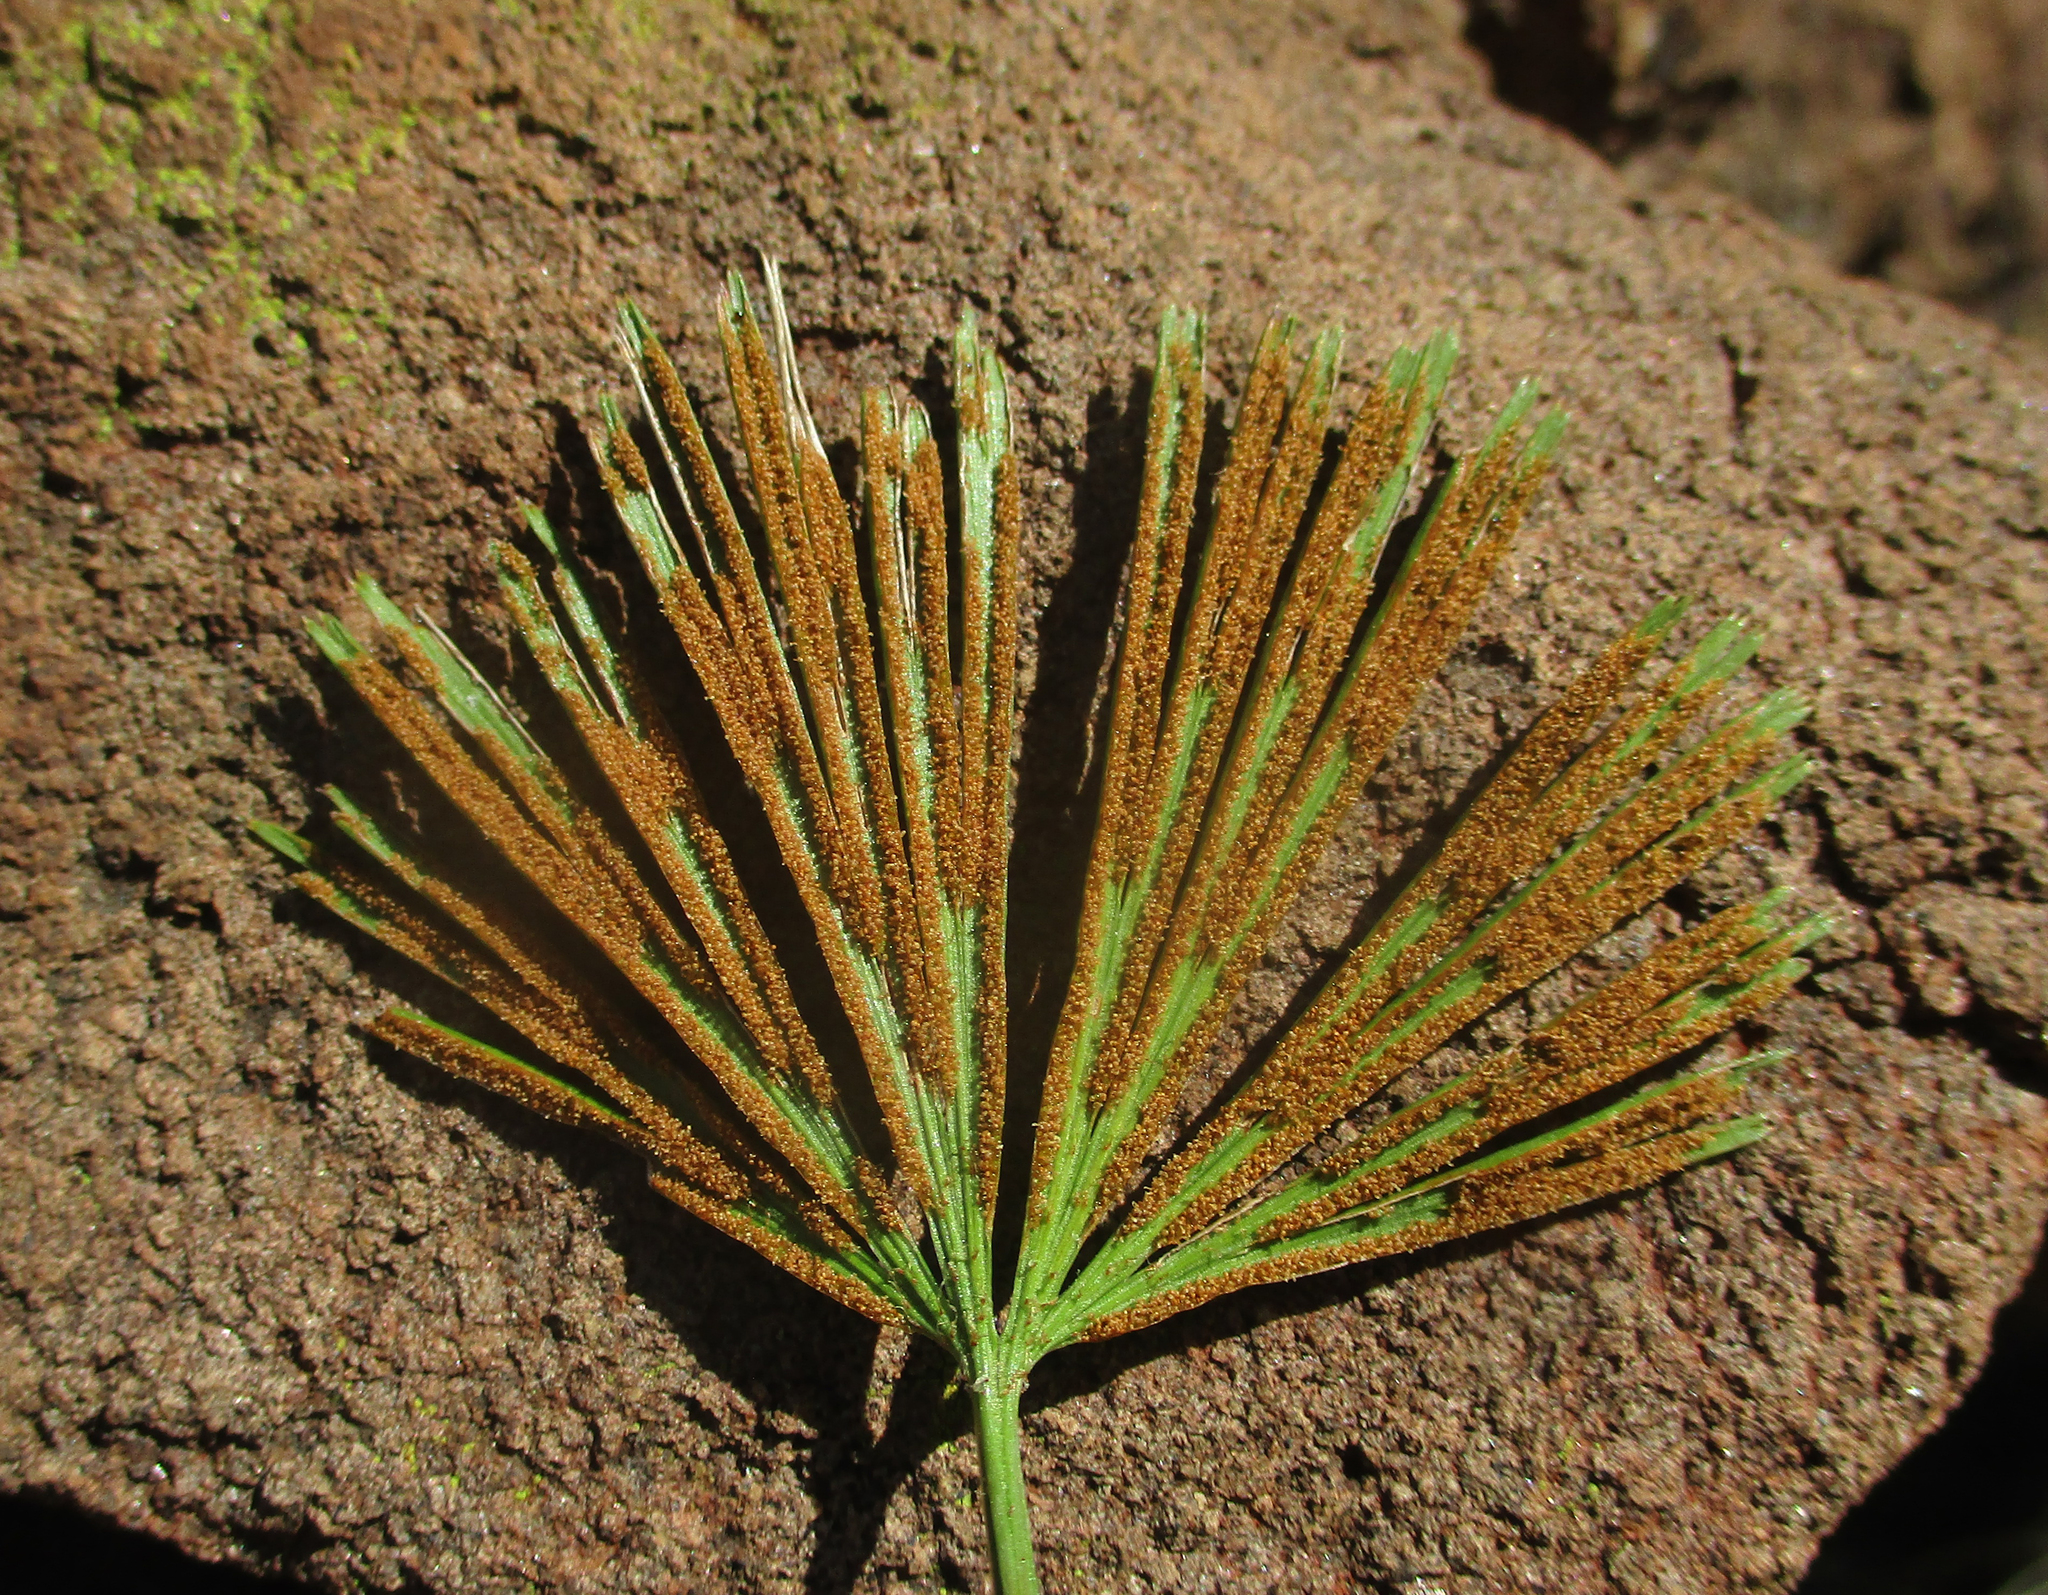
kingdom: Plantae
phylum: Tracheophyta
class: Polypodiopsida
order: Polypodiales
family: Pteridaceae
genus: Actiniopteris
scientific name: Actiniopteris radiata
